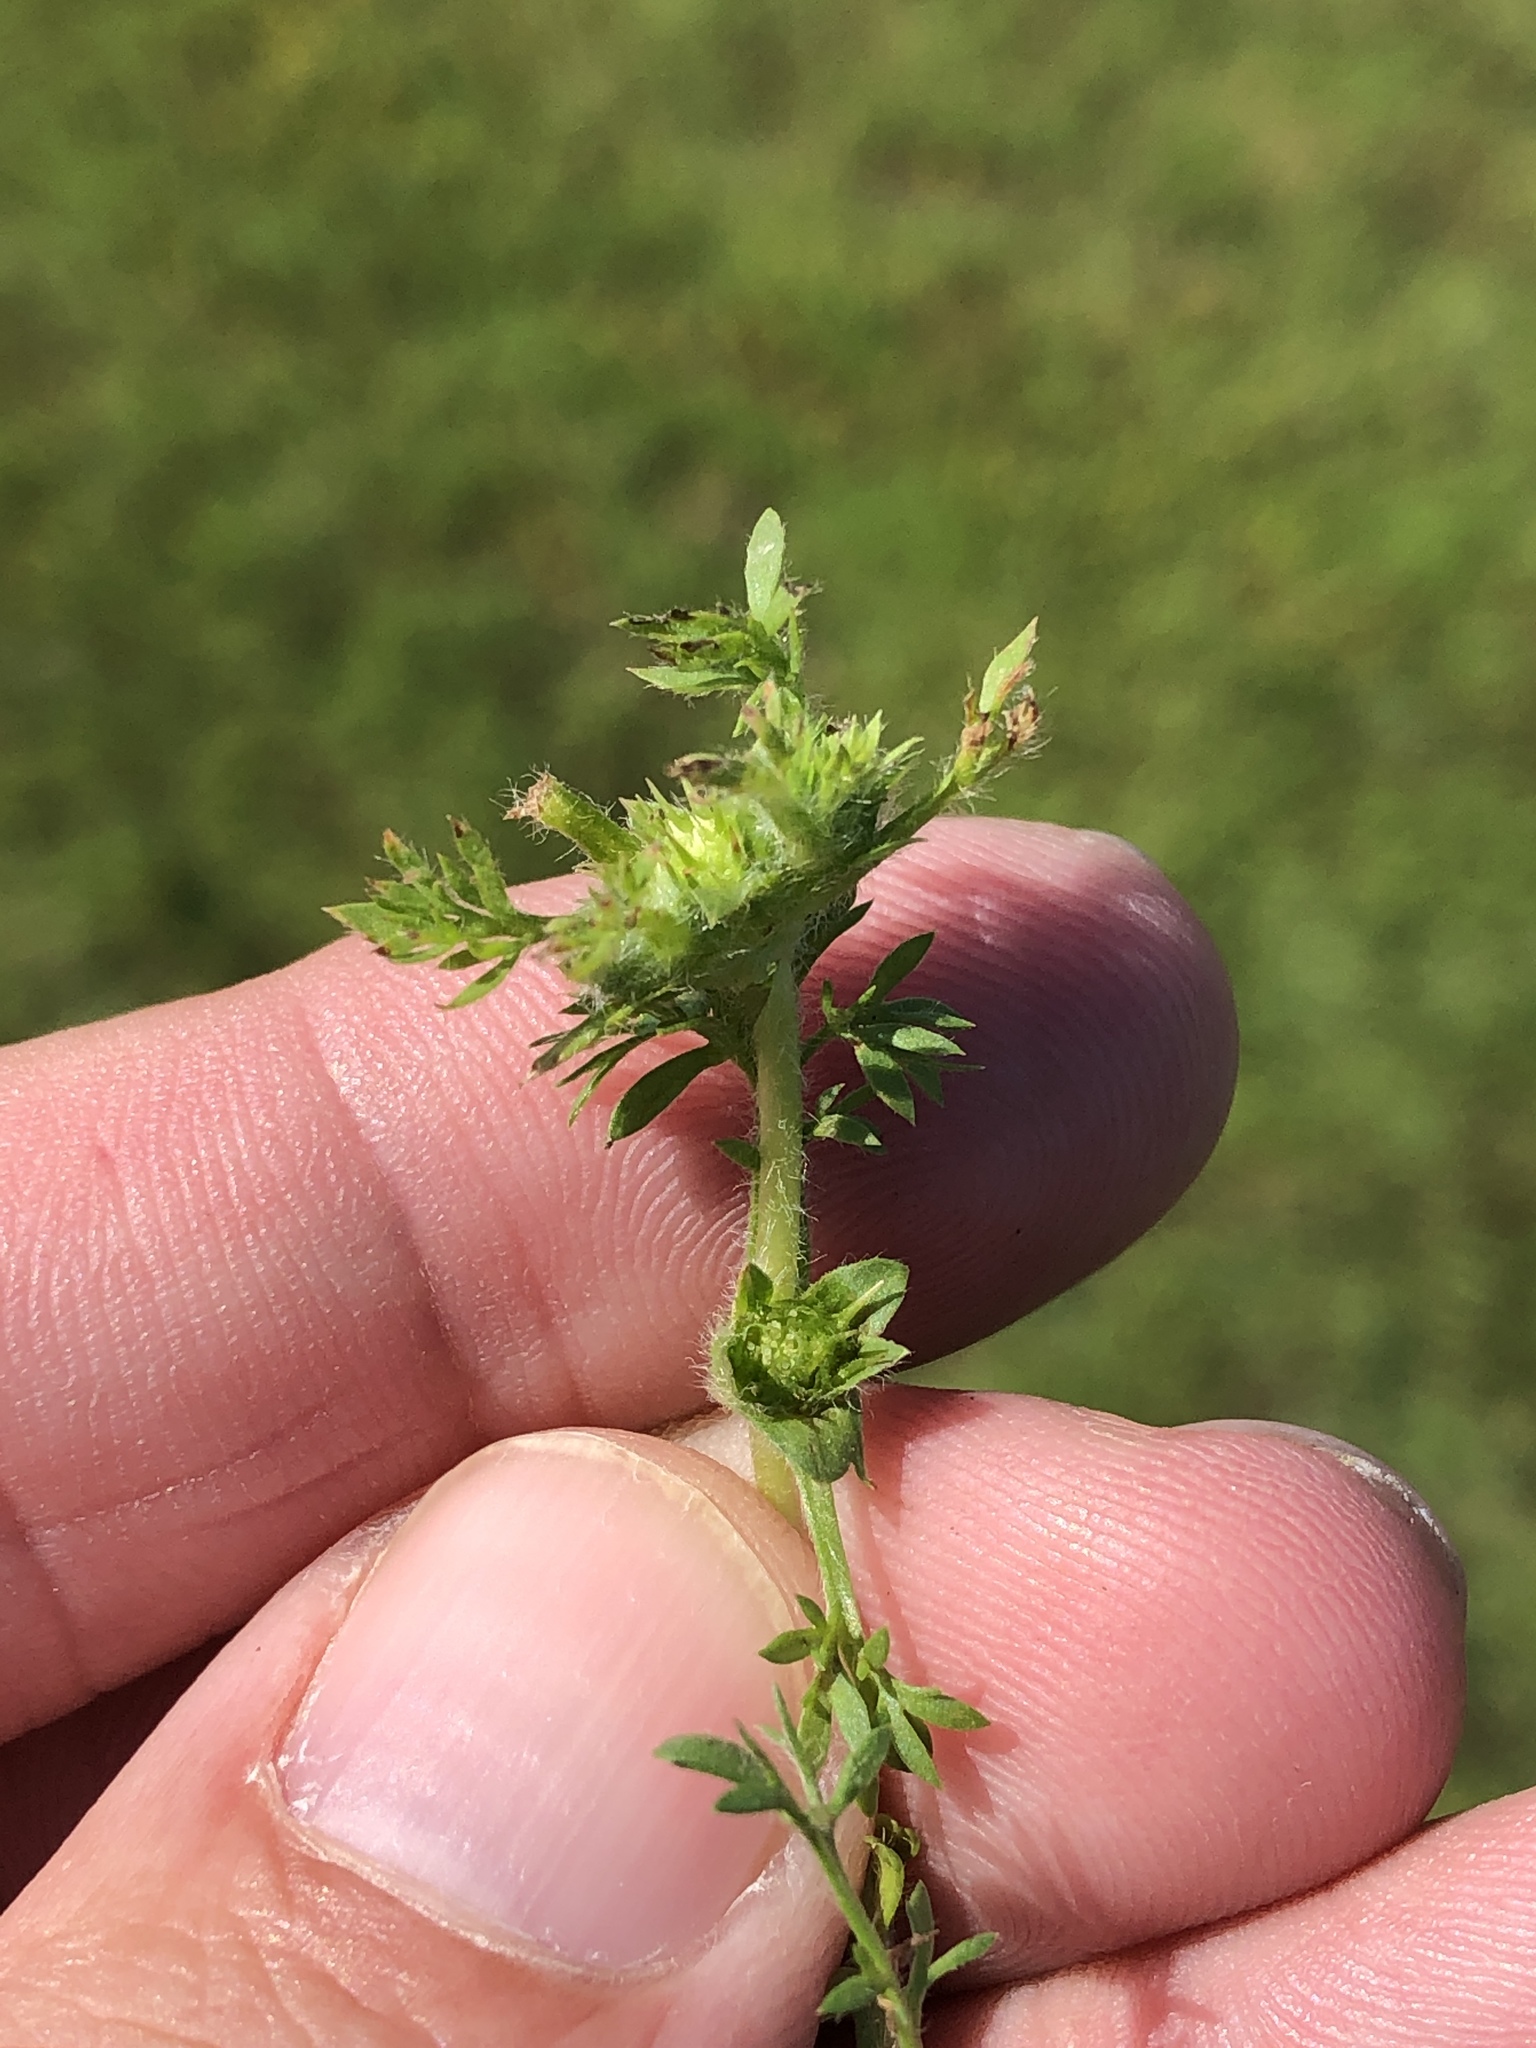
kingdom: Plantae
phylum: Tracheophyta
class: Magnoliopsida
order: Asterales
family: Asteraceae
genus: Soliva
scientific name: Soliva sessilis
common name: Field burrweed
